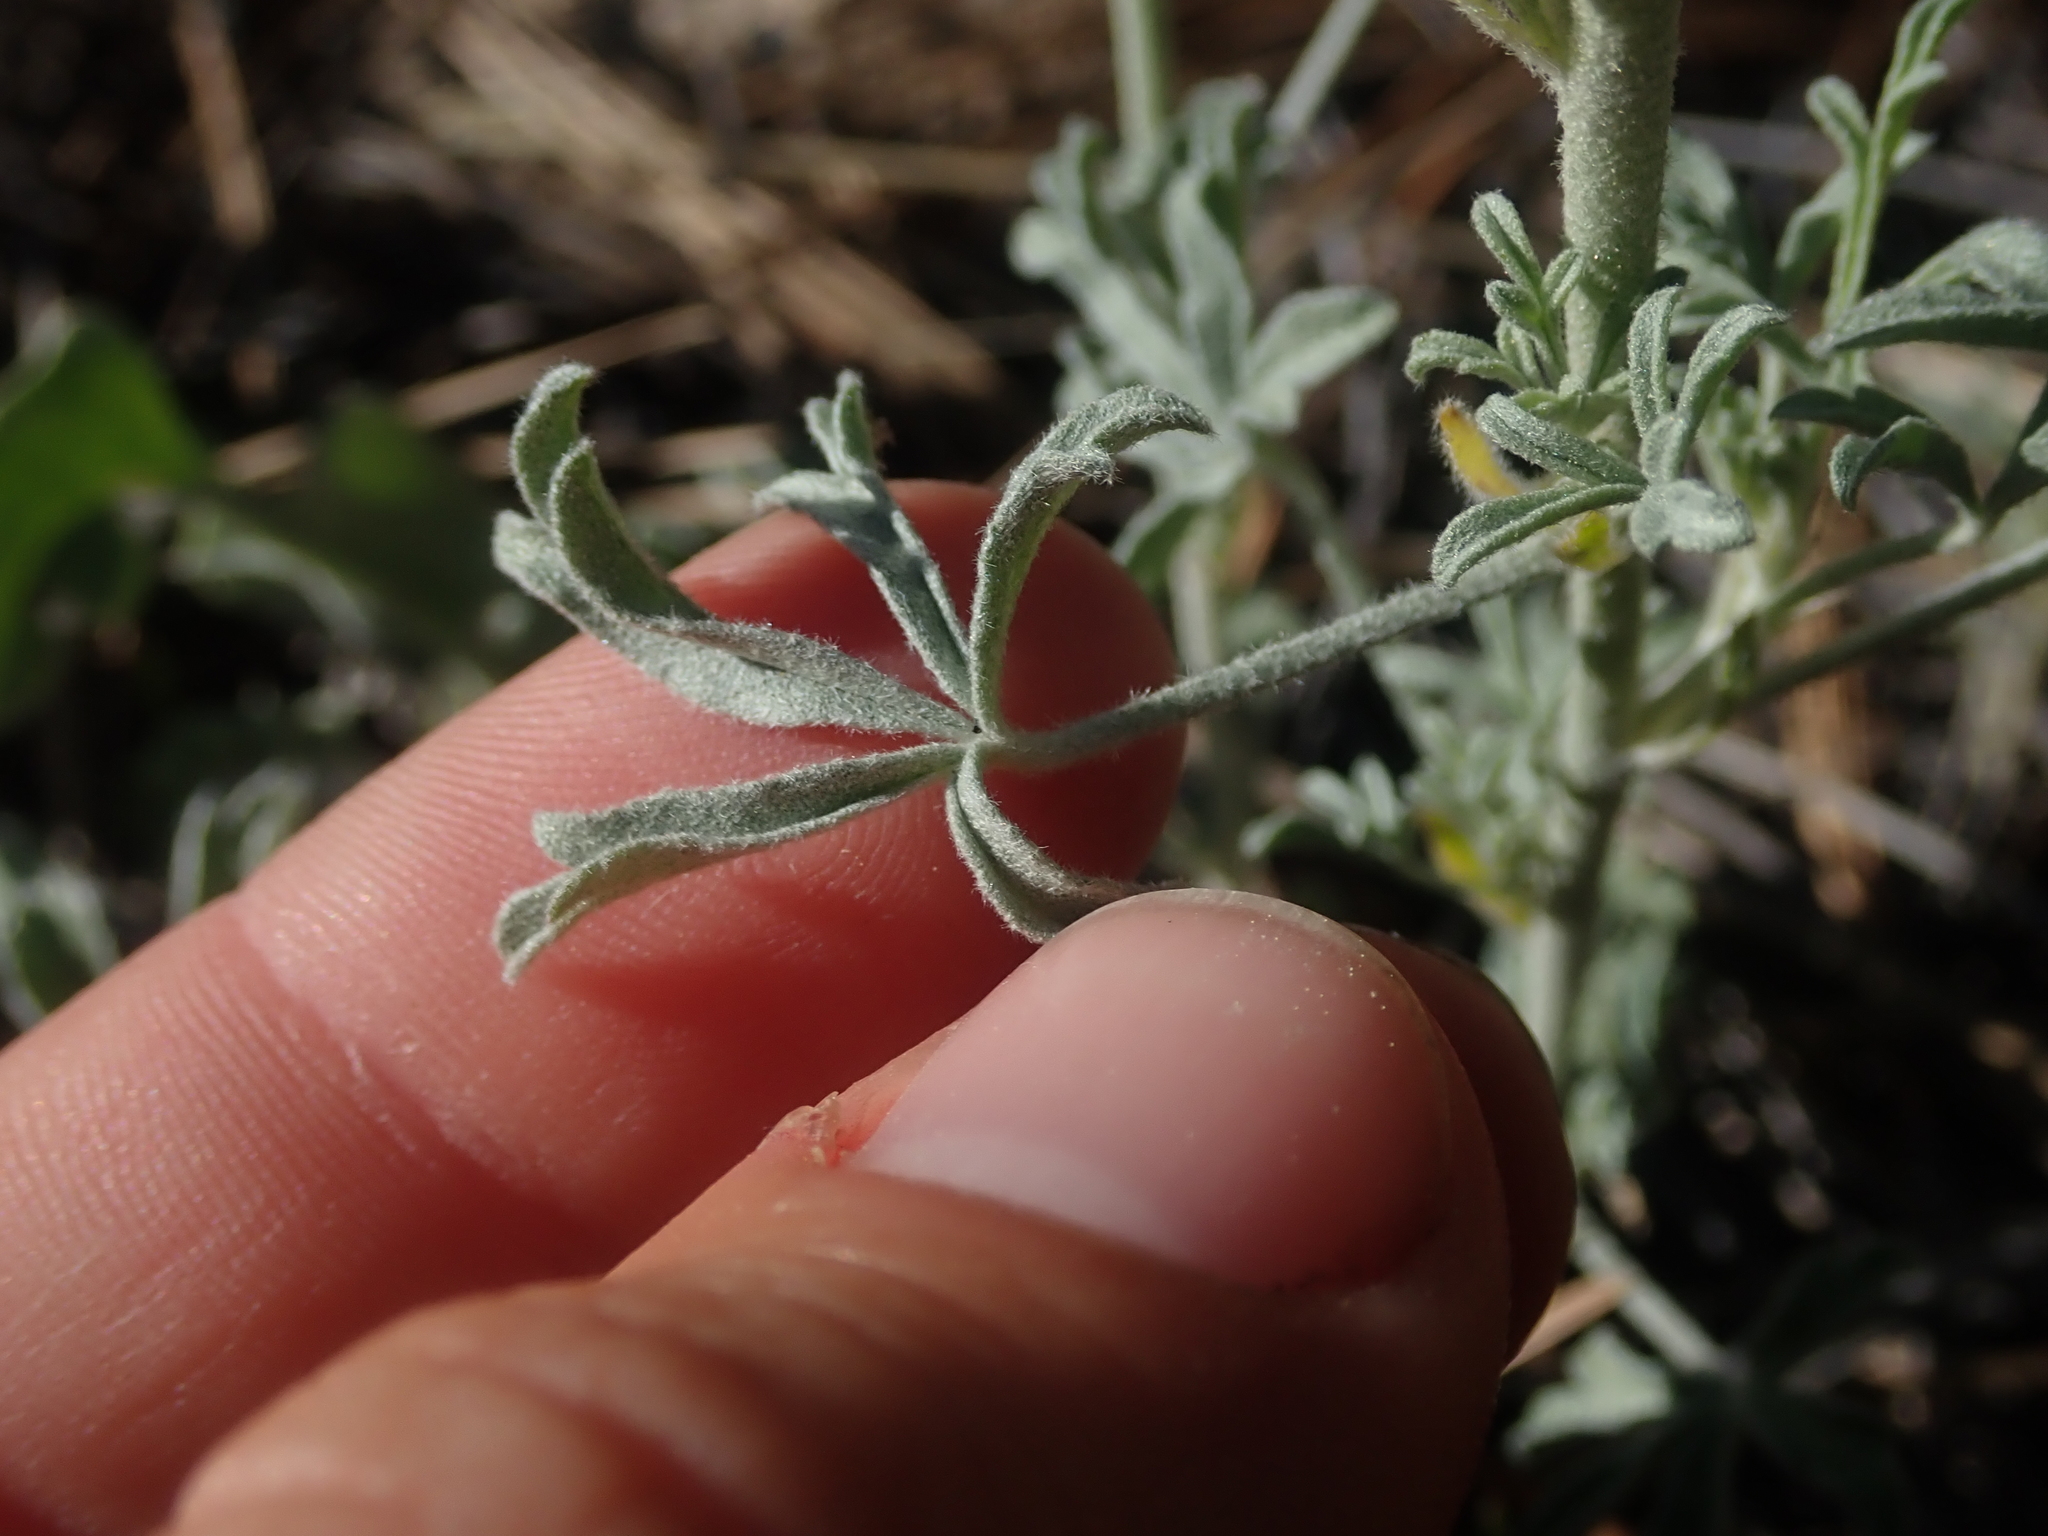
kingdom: Plantae
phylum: Tracheophyta
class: Magnoliopsida
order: Malvales
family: Malvaceae
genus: Sphaeralcea
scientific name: Sphaeralcea coccinea
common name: Moss-rose
